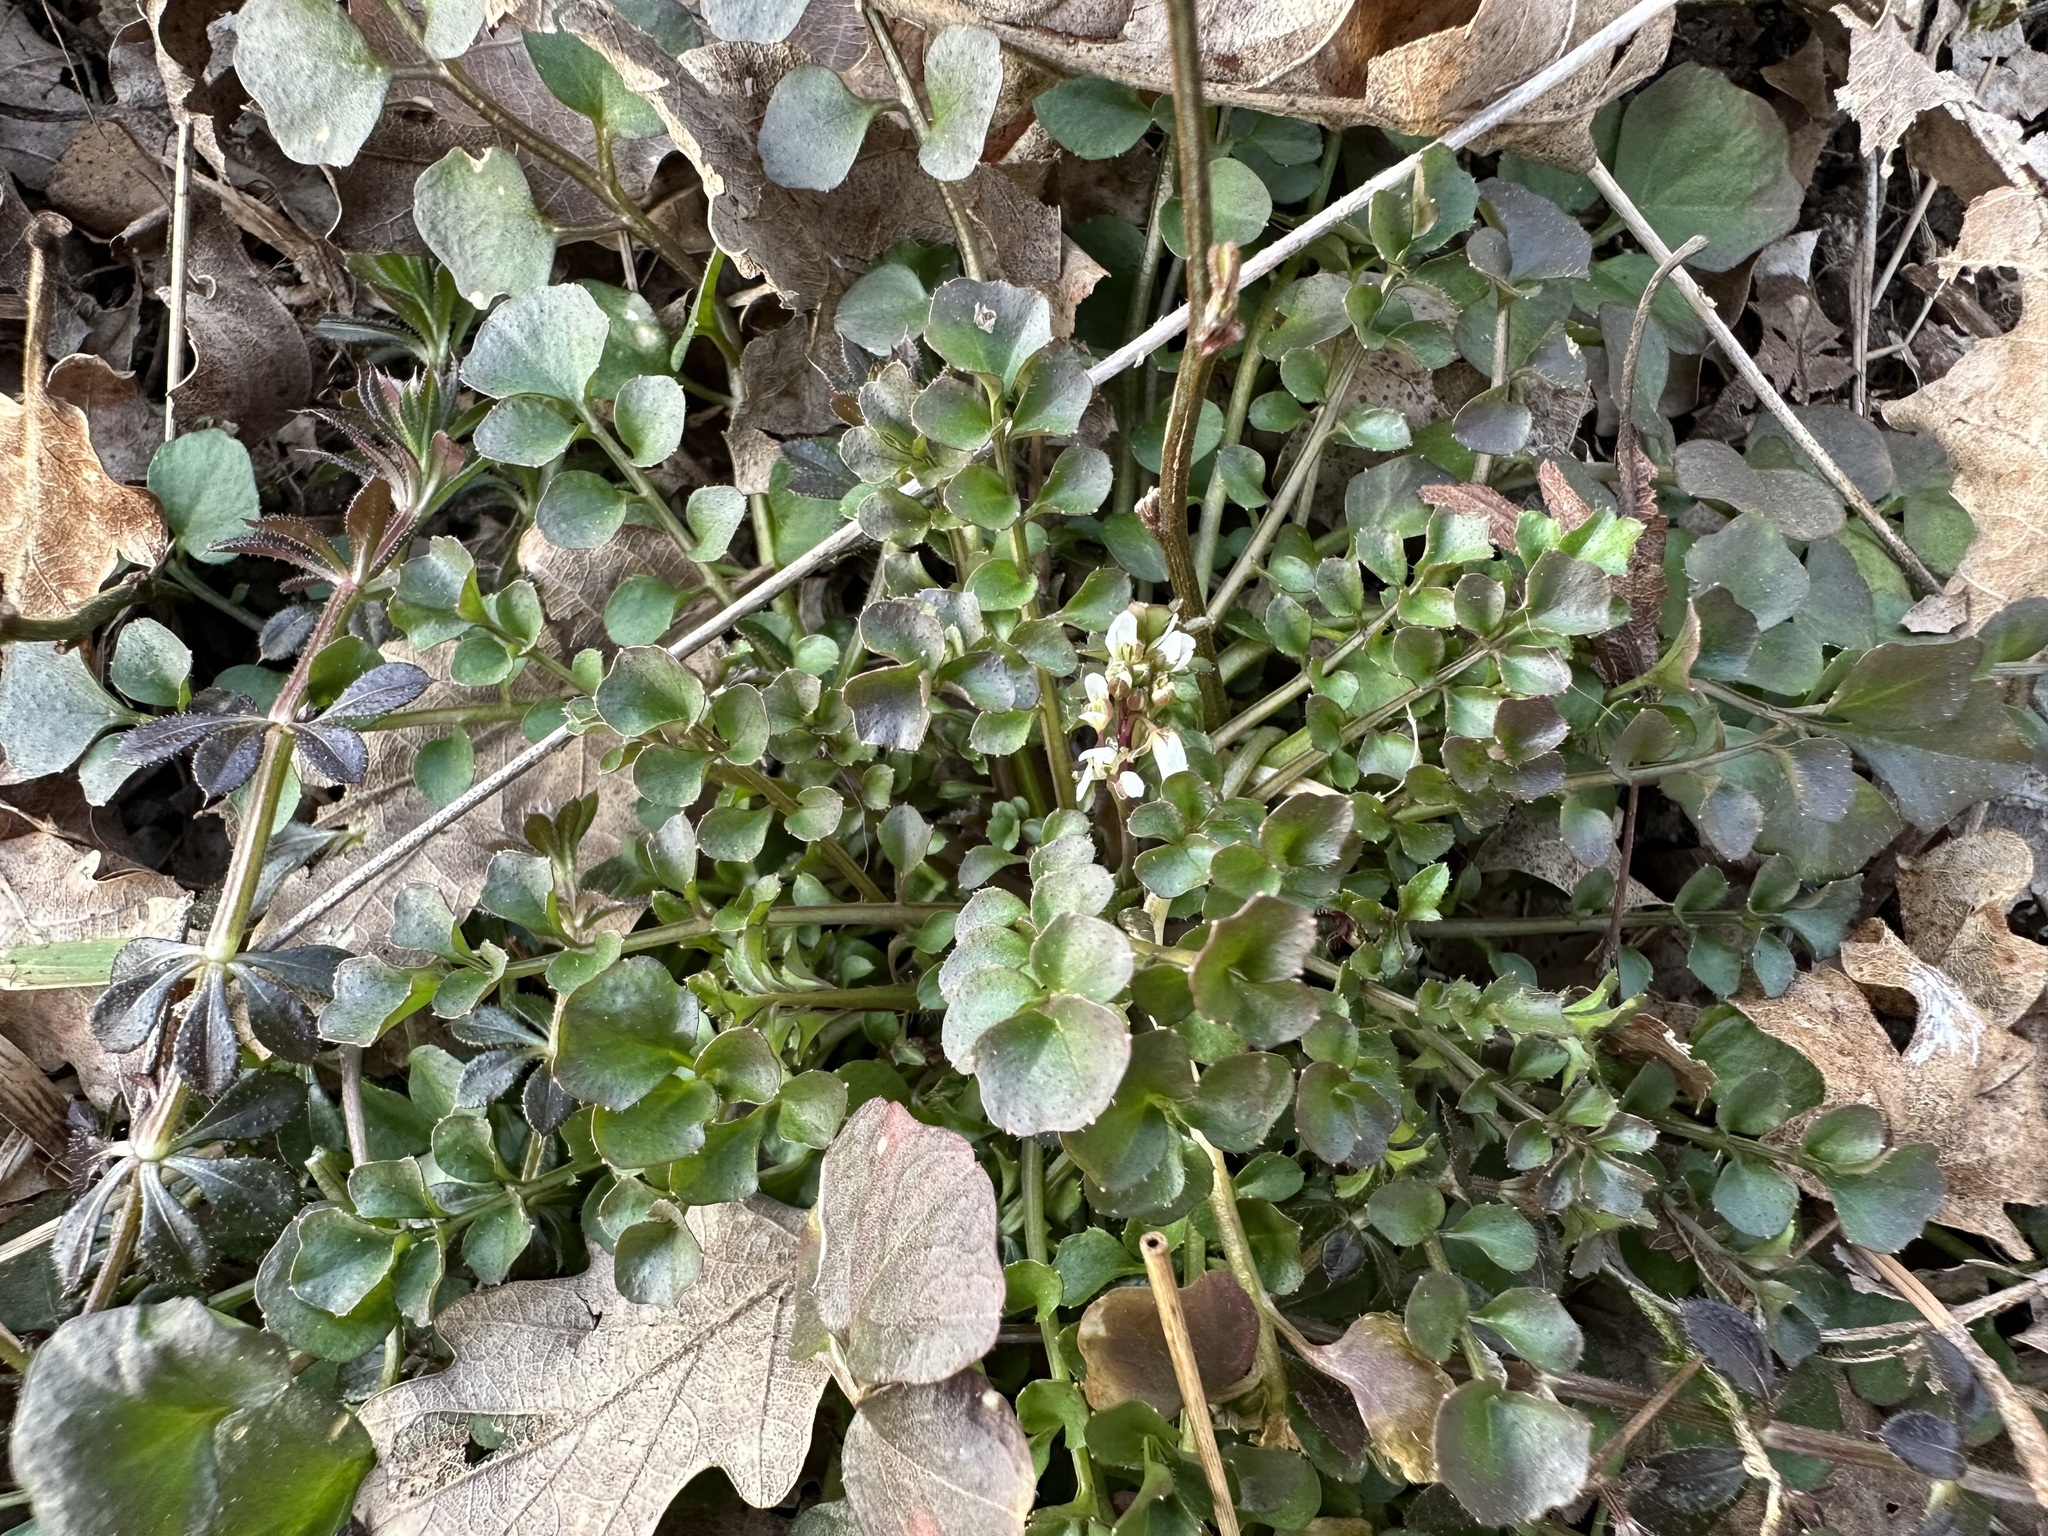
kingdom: Plantae
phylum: Tracheophyta
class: Magnoliopsida
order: Brassicales
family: Brassicaceae
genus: Cardamine
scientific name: Cardamine hirsuta
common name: Hairy bittercress
